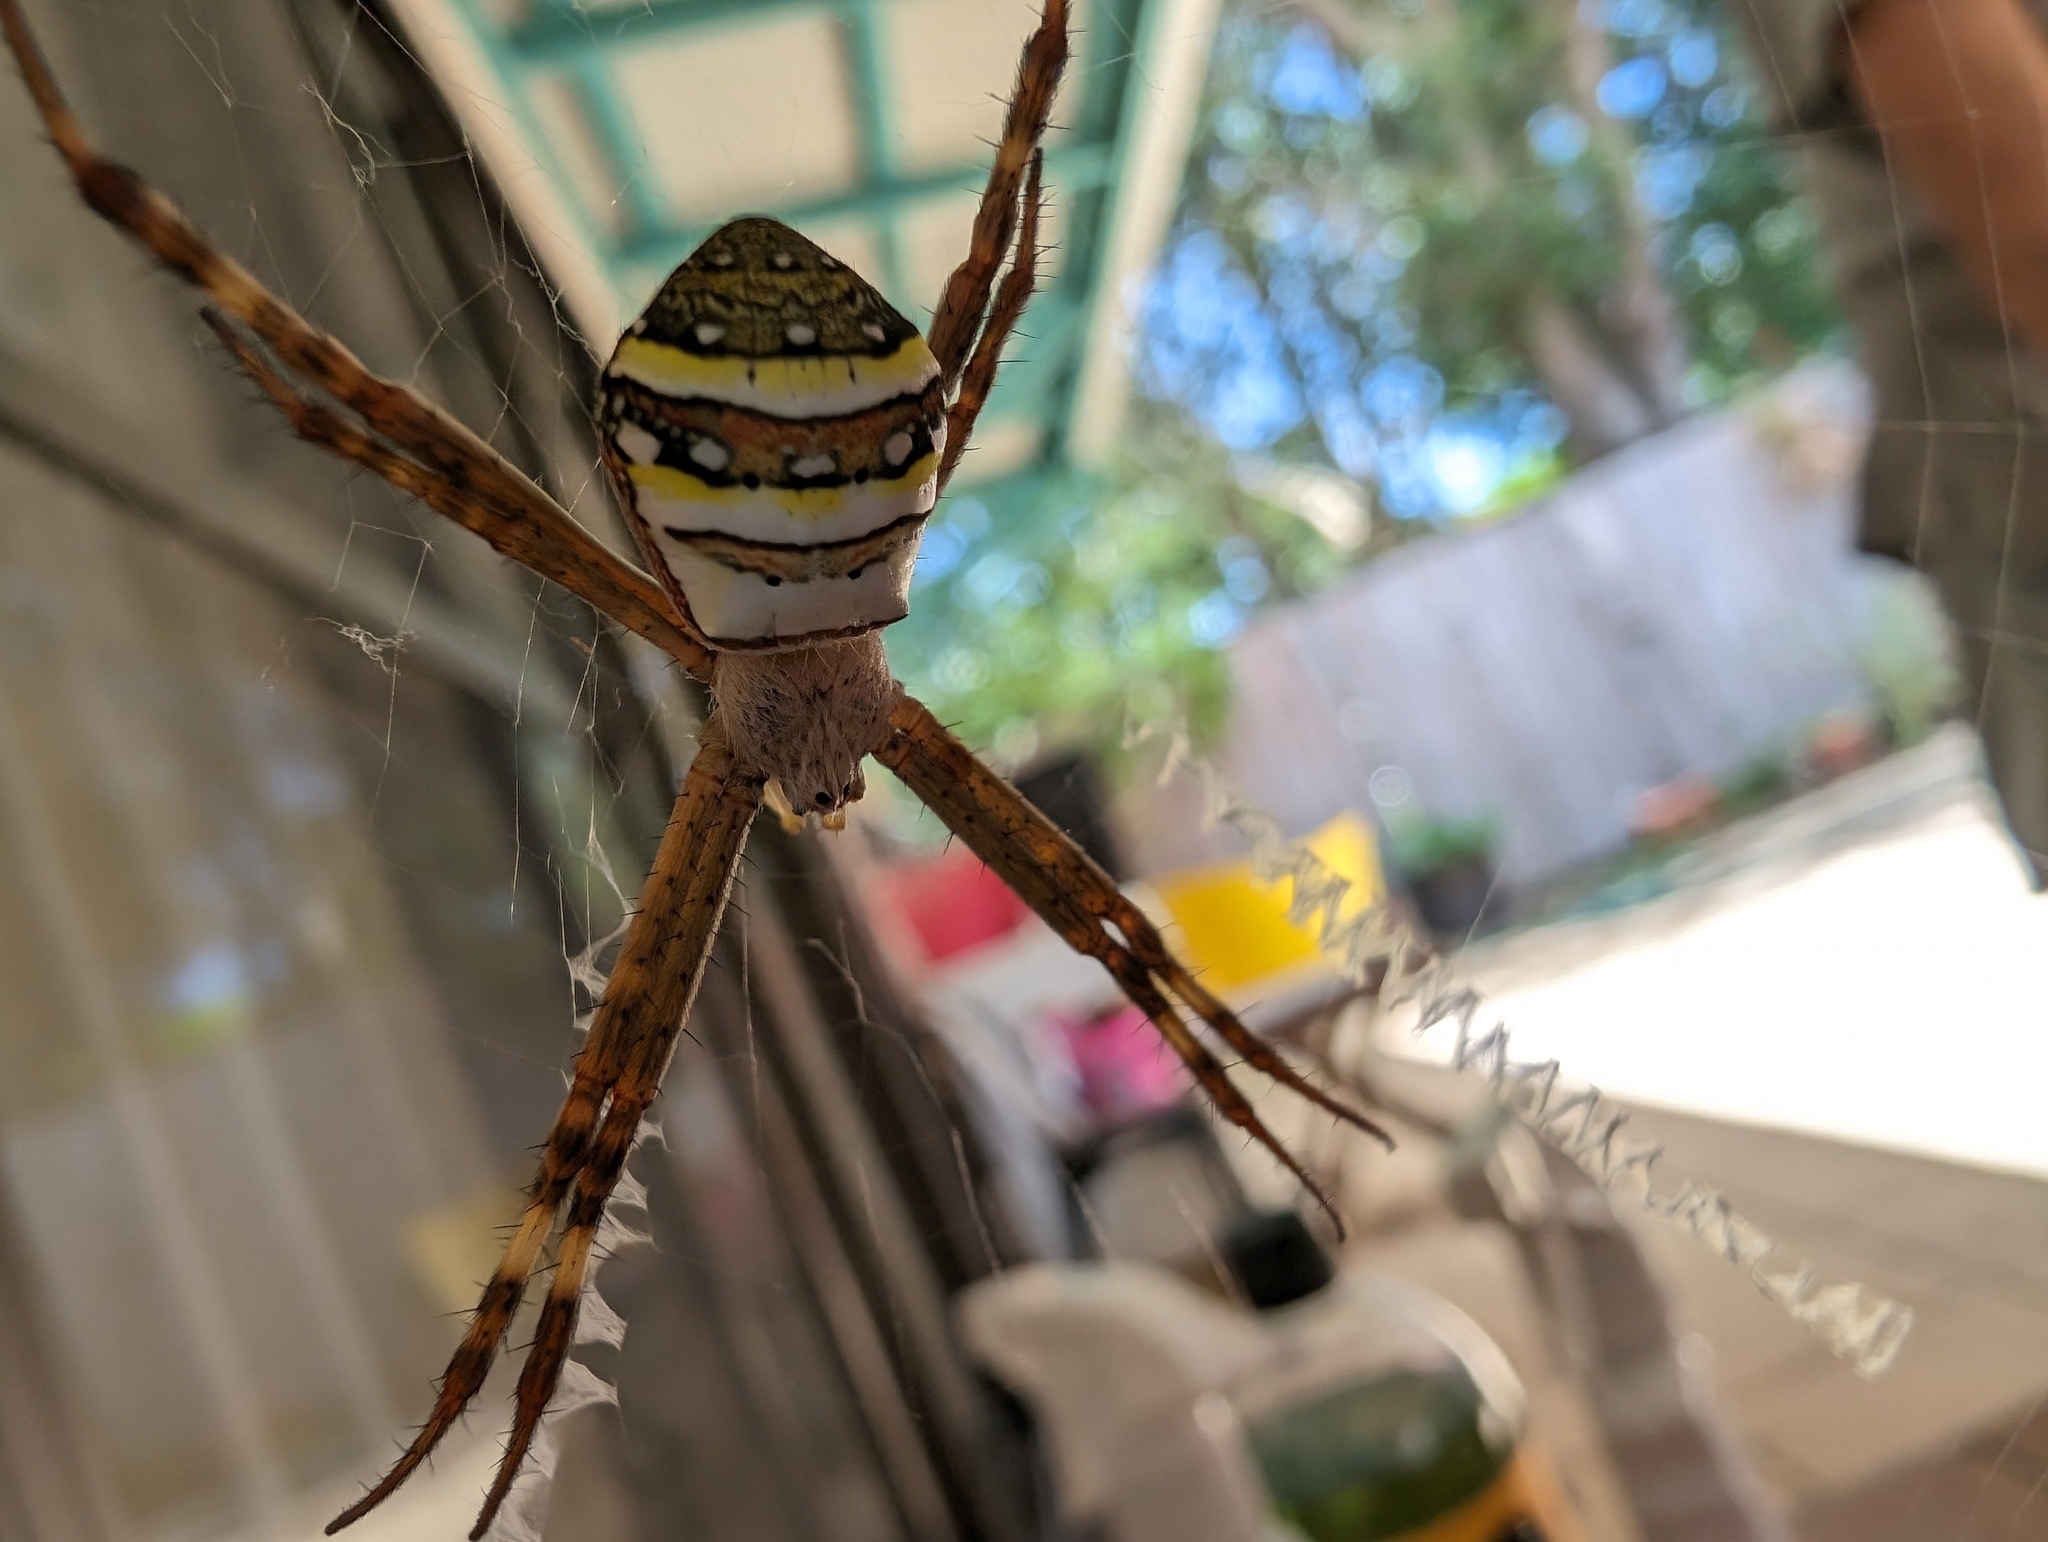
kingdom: Animalia
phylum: Arthropoda
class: Arachnida
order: Araneae
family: Araneidae
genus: Argiope
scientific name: Argiope keyserlingi
